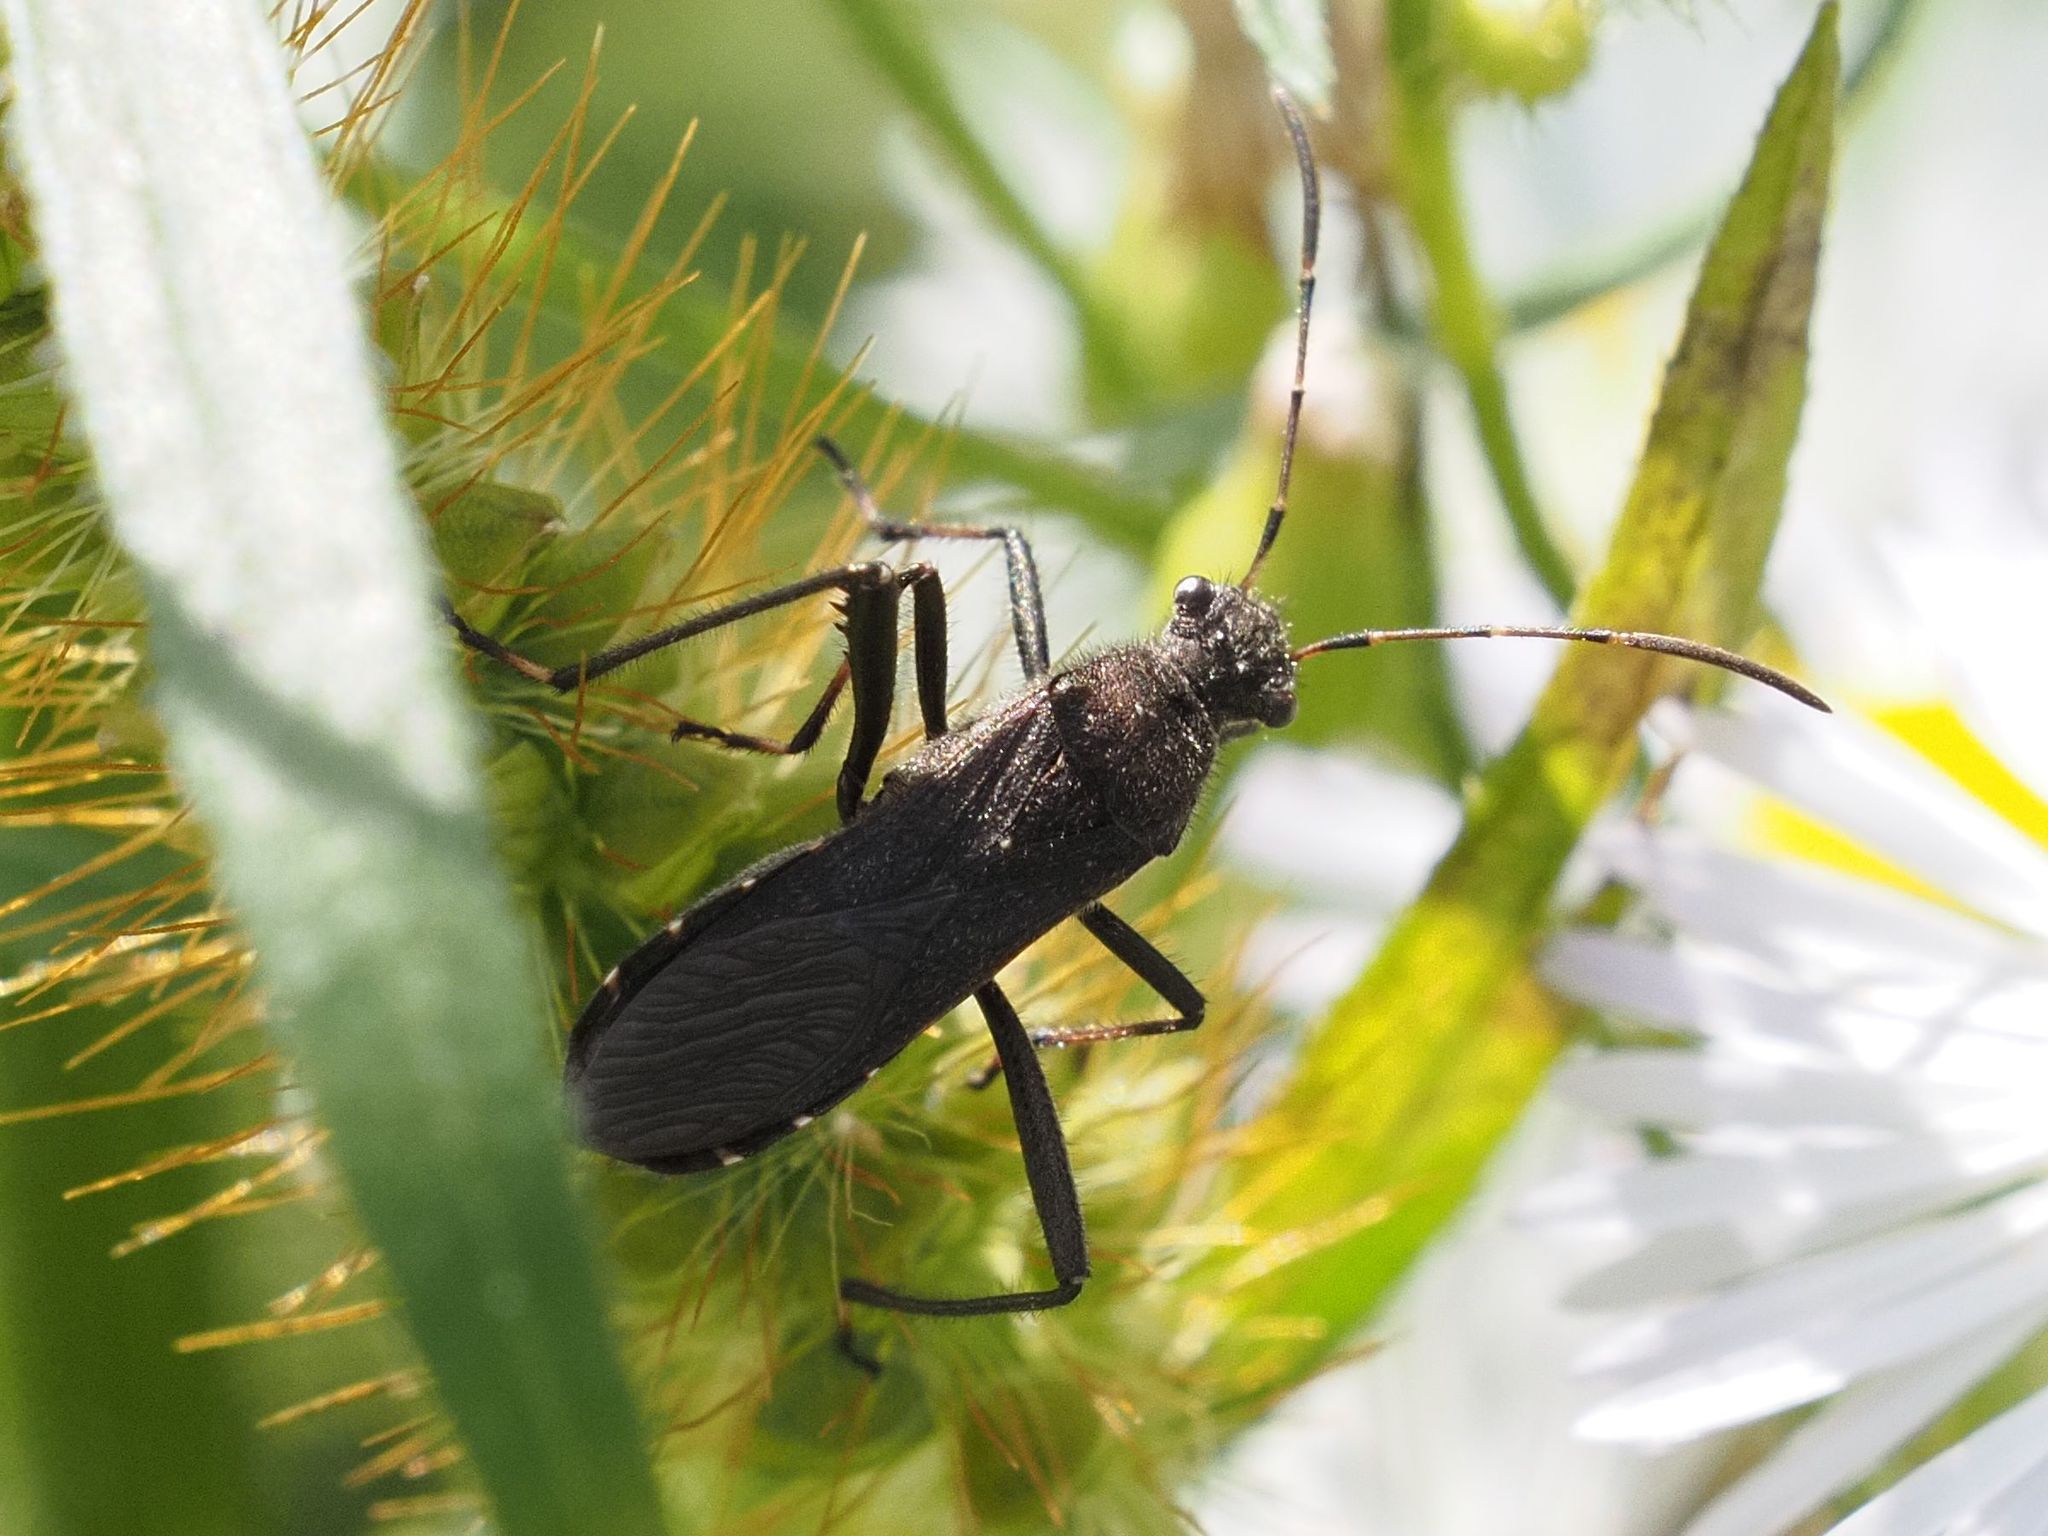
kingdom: Animalia
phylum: Arthropoda
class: Insecta
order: Hemiptera
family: Alydidae
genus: Alydus
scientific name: Alydus calcaratus
